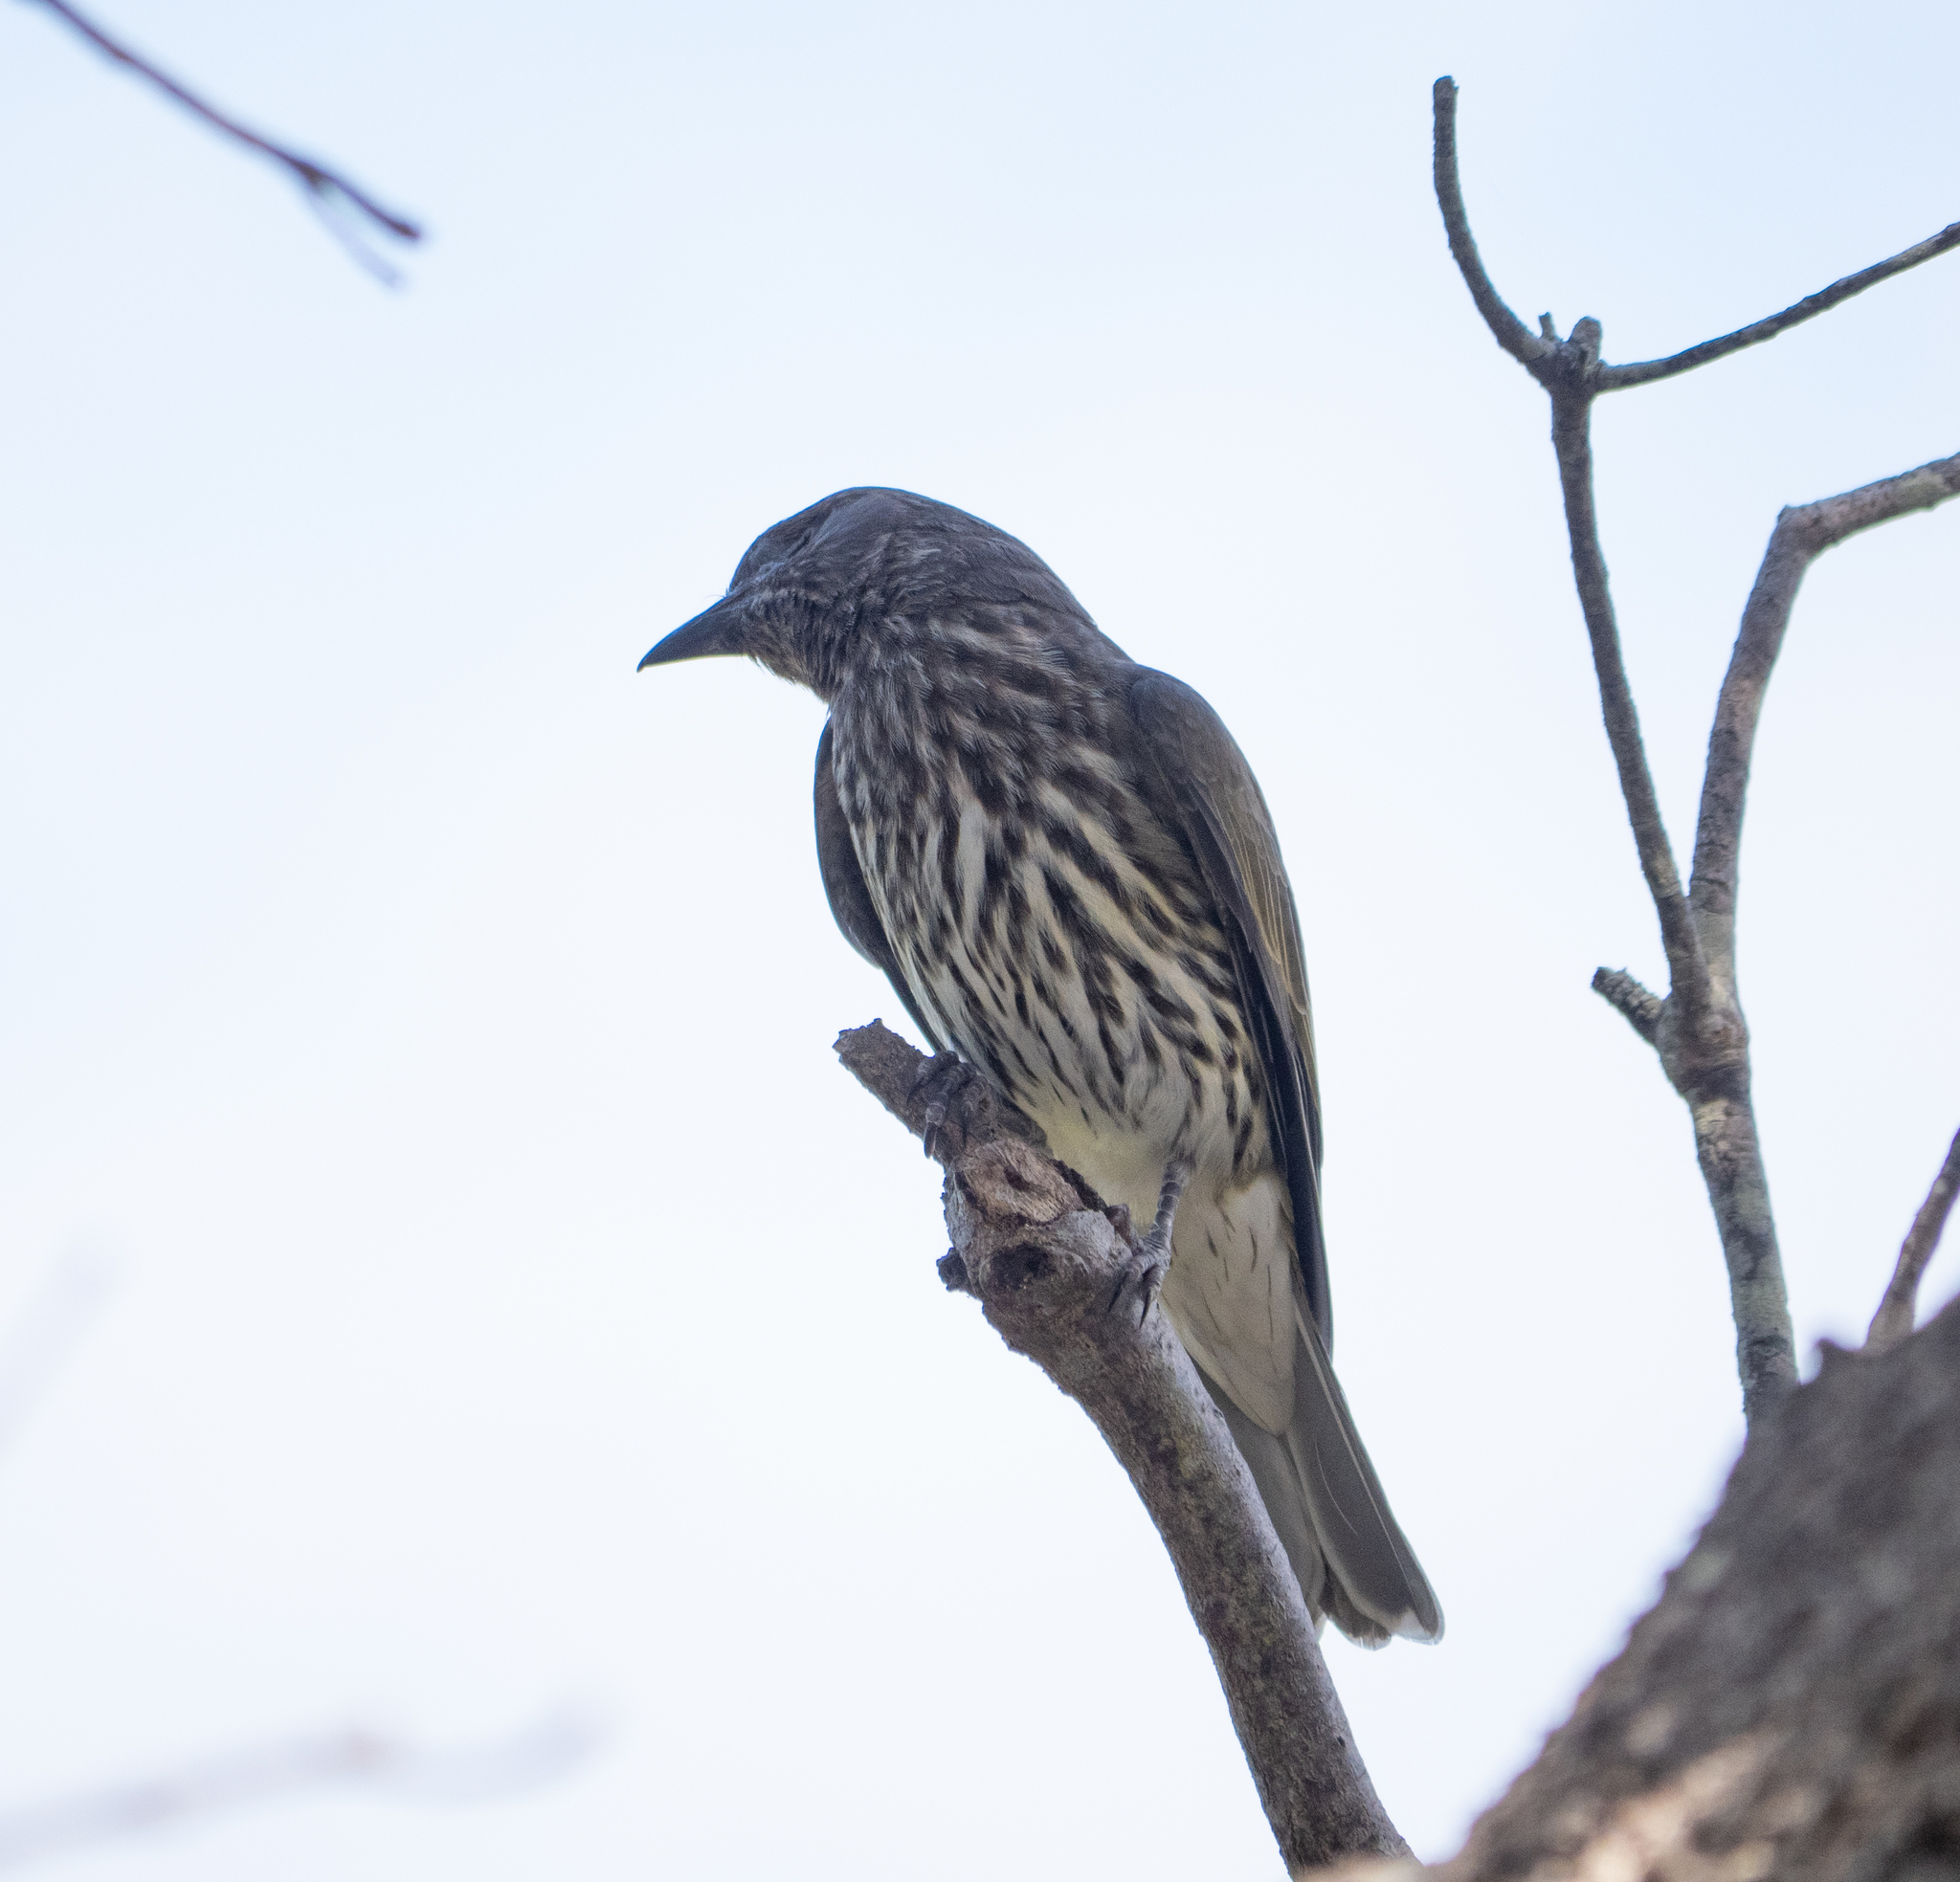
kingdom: Animalia
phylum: Chordata
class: Aves
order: Passeriformes
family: Oriolidae
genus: Sphecotheres
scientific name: Sphecotheres vieilloti
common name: Australasian figbird
